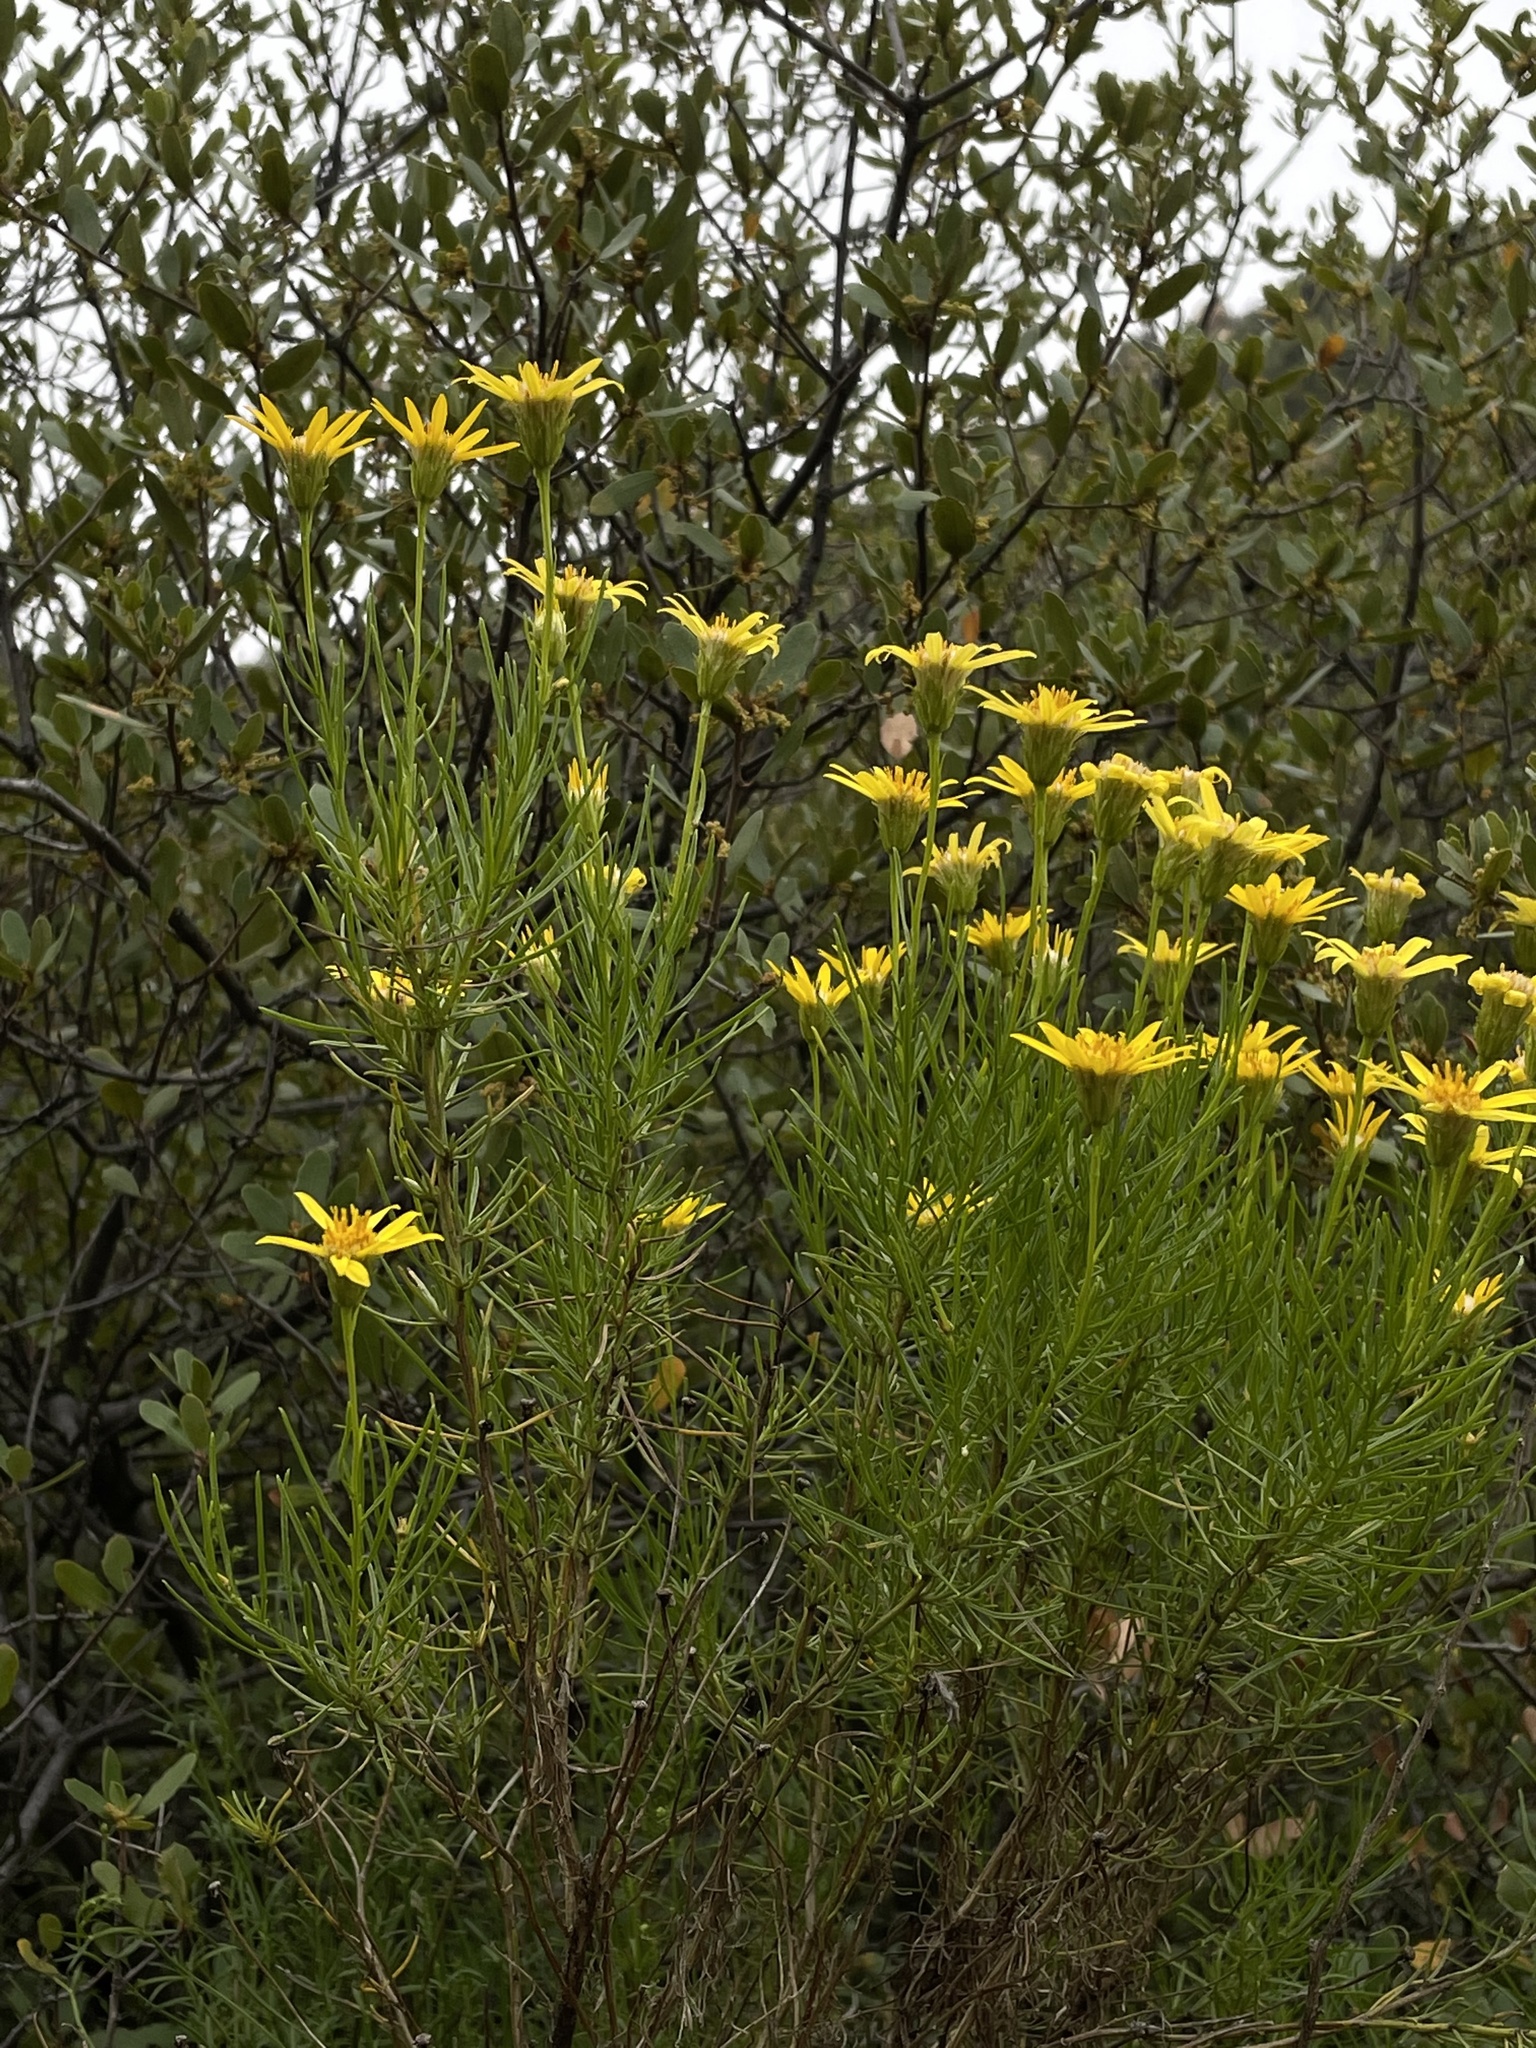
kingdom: Plantae
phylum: Tracheophyta
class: Magnoliopsida
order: Asterales
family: Asteraceae
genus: Ericameria
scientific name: Ericameria linearifolia
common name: Interior goldenbush
